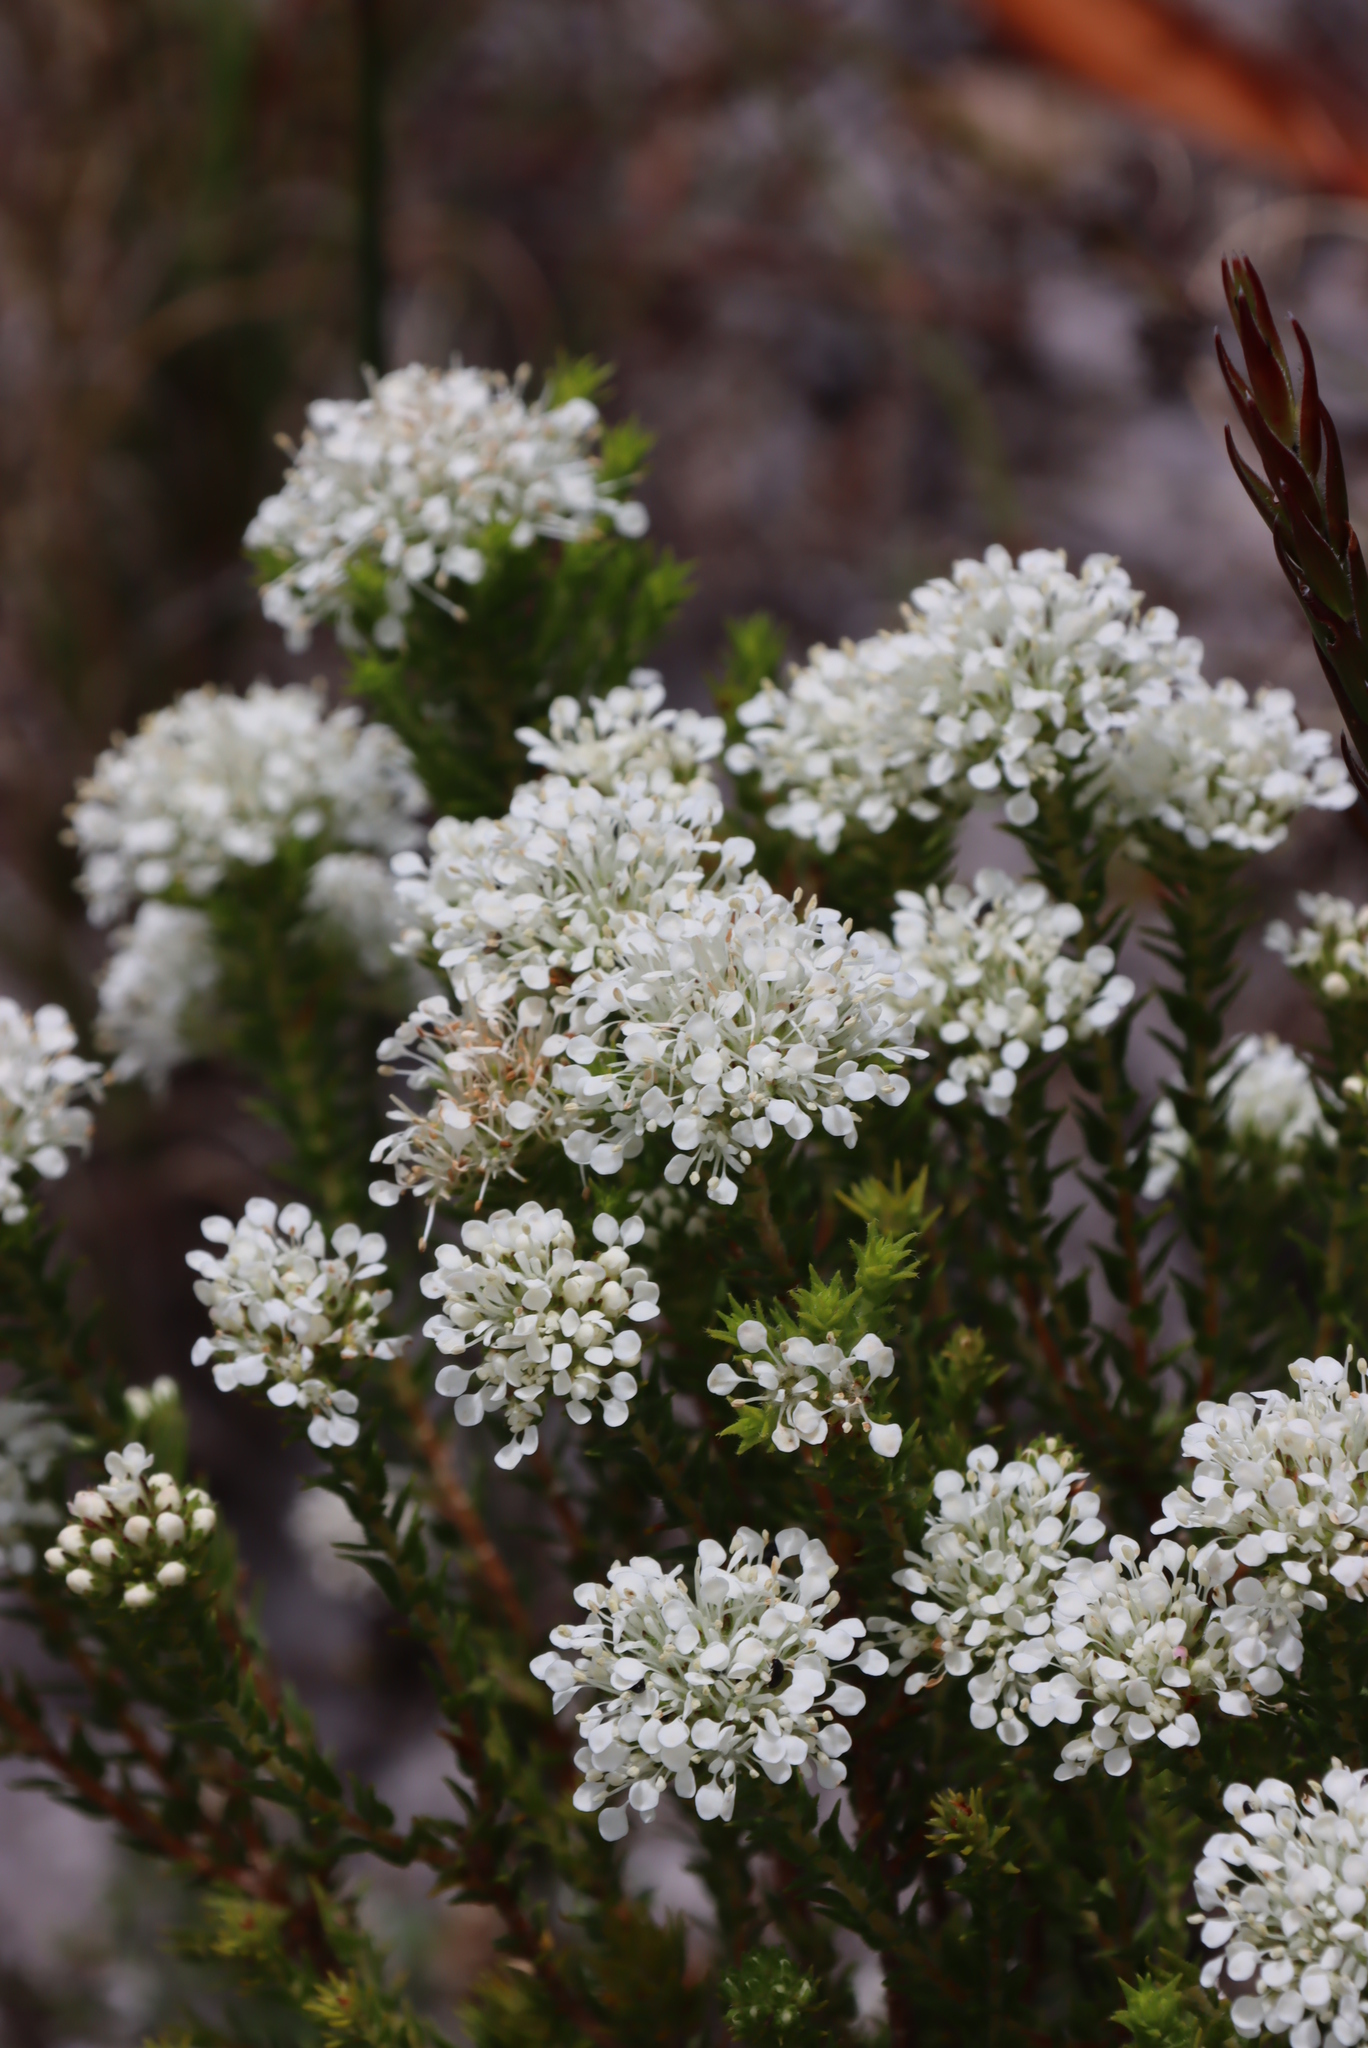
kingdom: Plantae
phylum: Tracheophyta
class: Magnoliopsida
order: Sapindales
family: Rutaceae
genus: Agathosma
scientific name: Agathosma capensis
